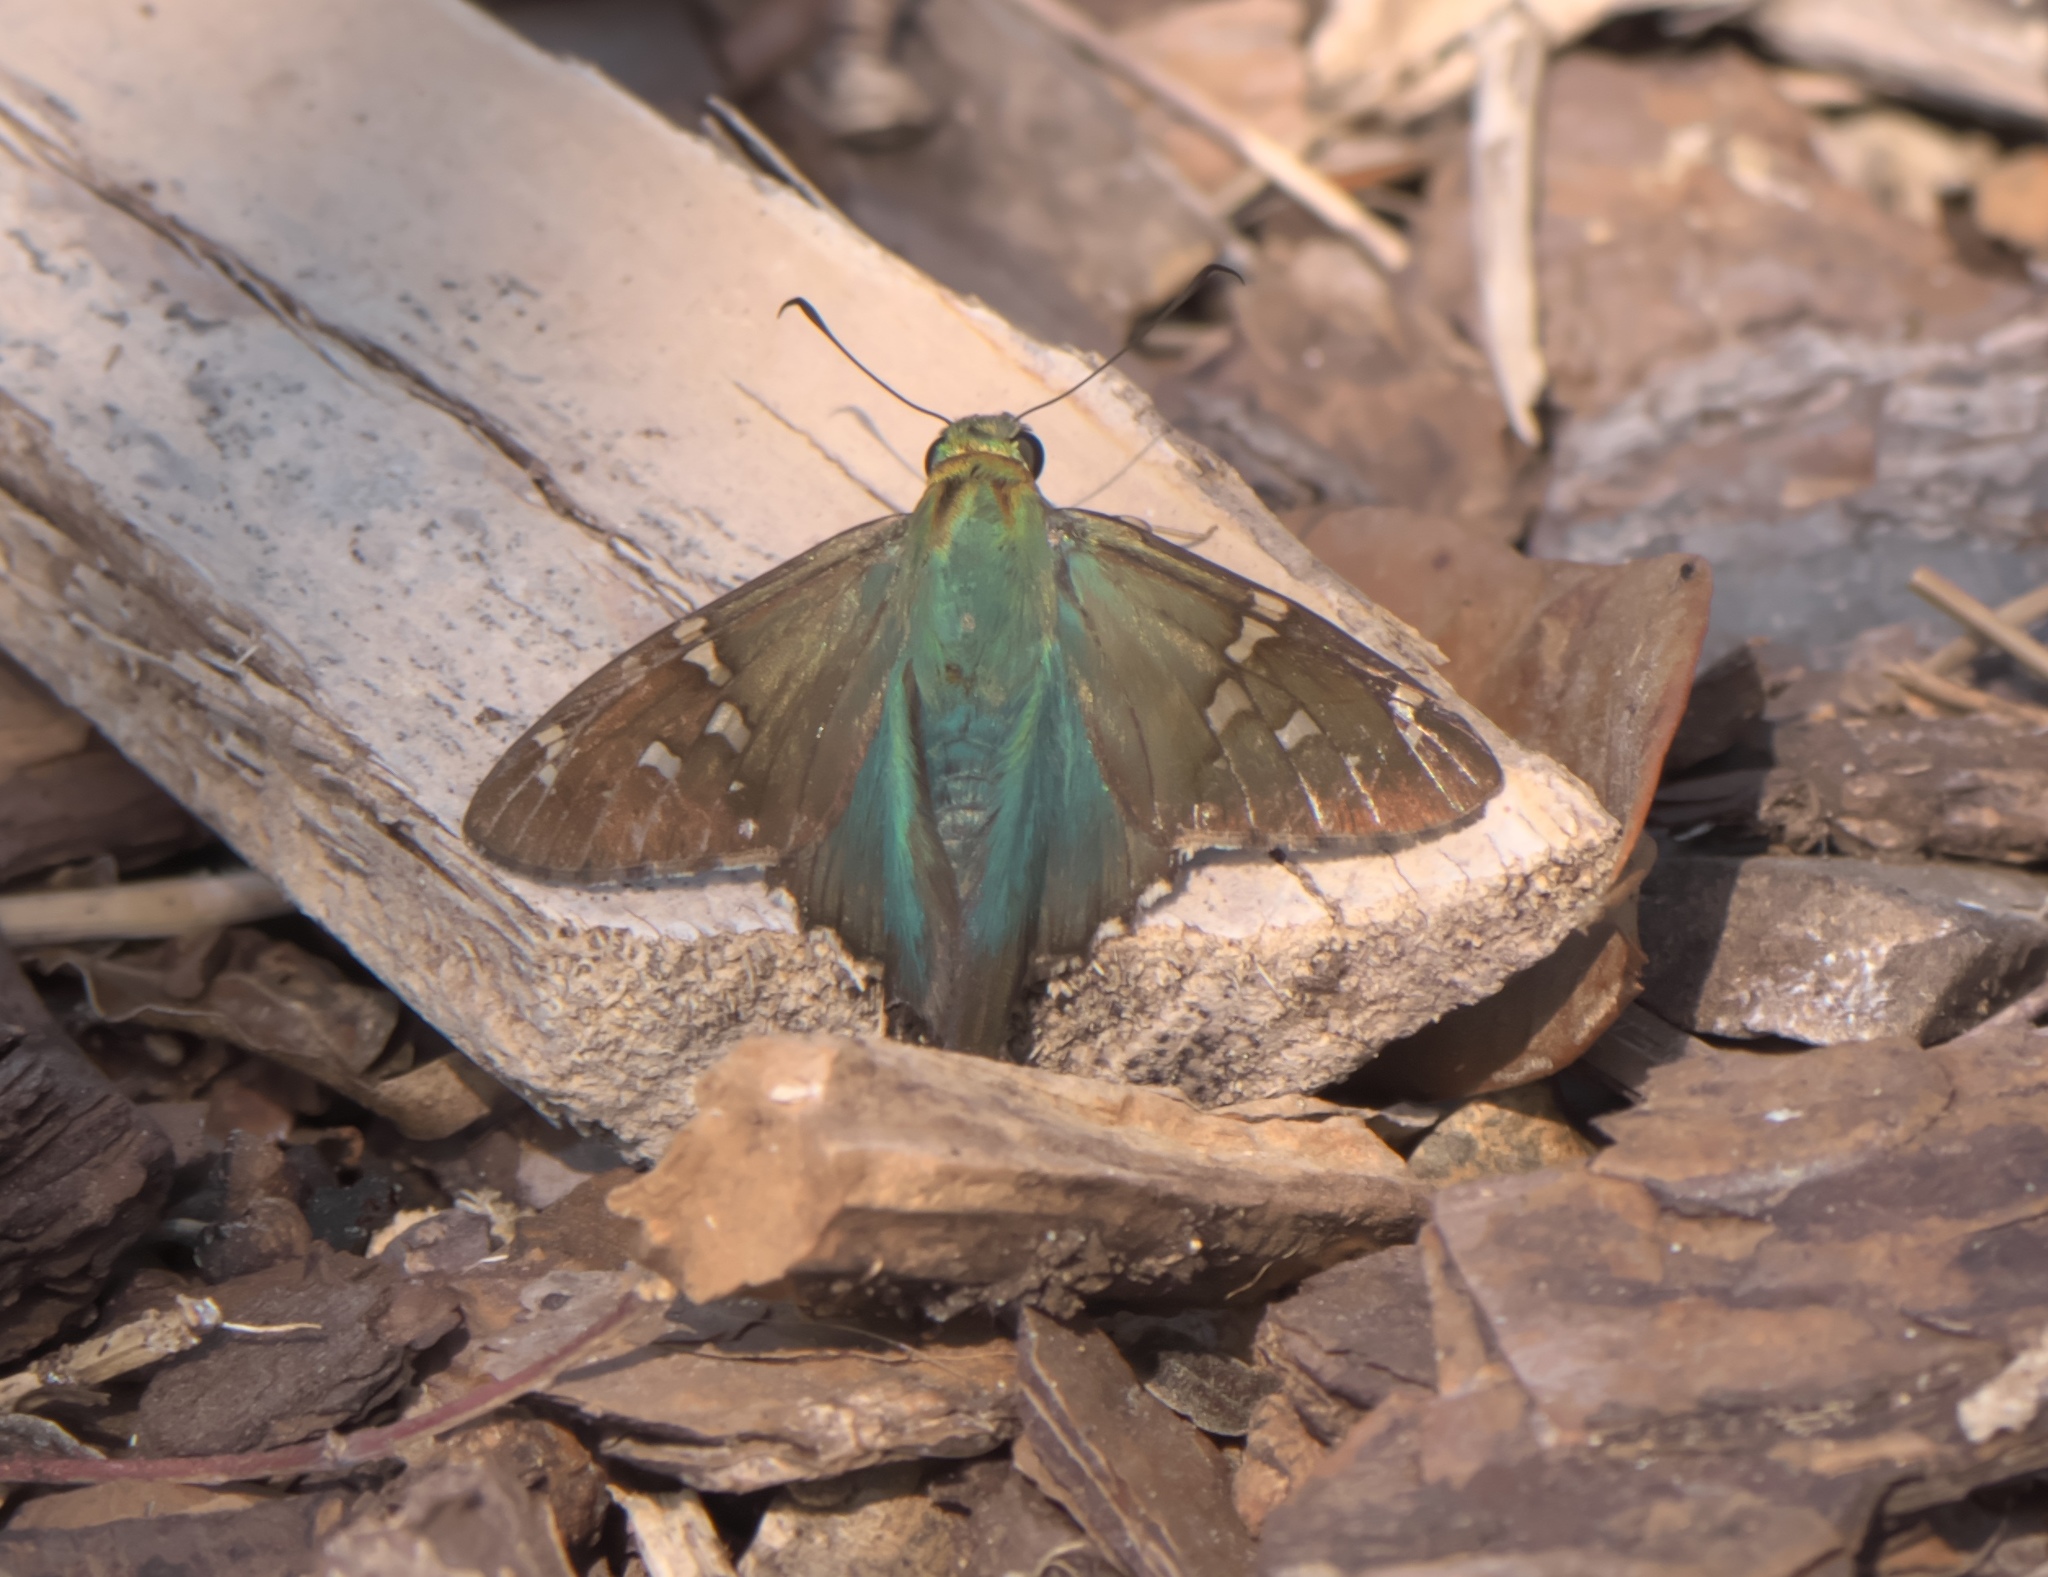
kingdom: Animalia
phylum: Arthropoda
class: Insecta
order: Lepidoptera
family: Hesperiidae
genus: Urbanus
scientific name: Urbanus proteus
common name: Long-tailed skipper
